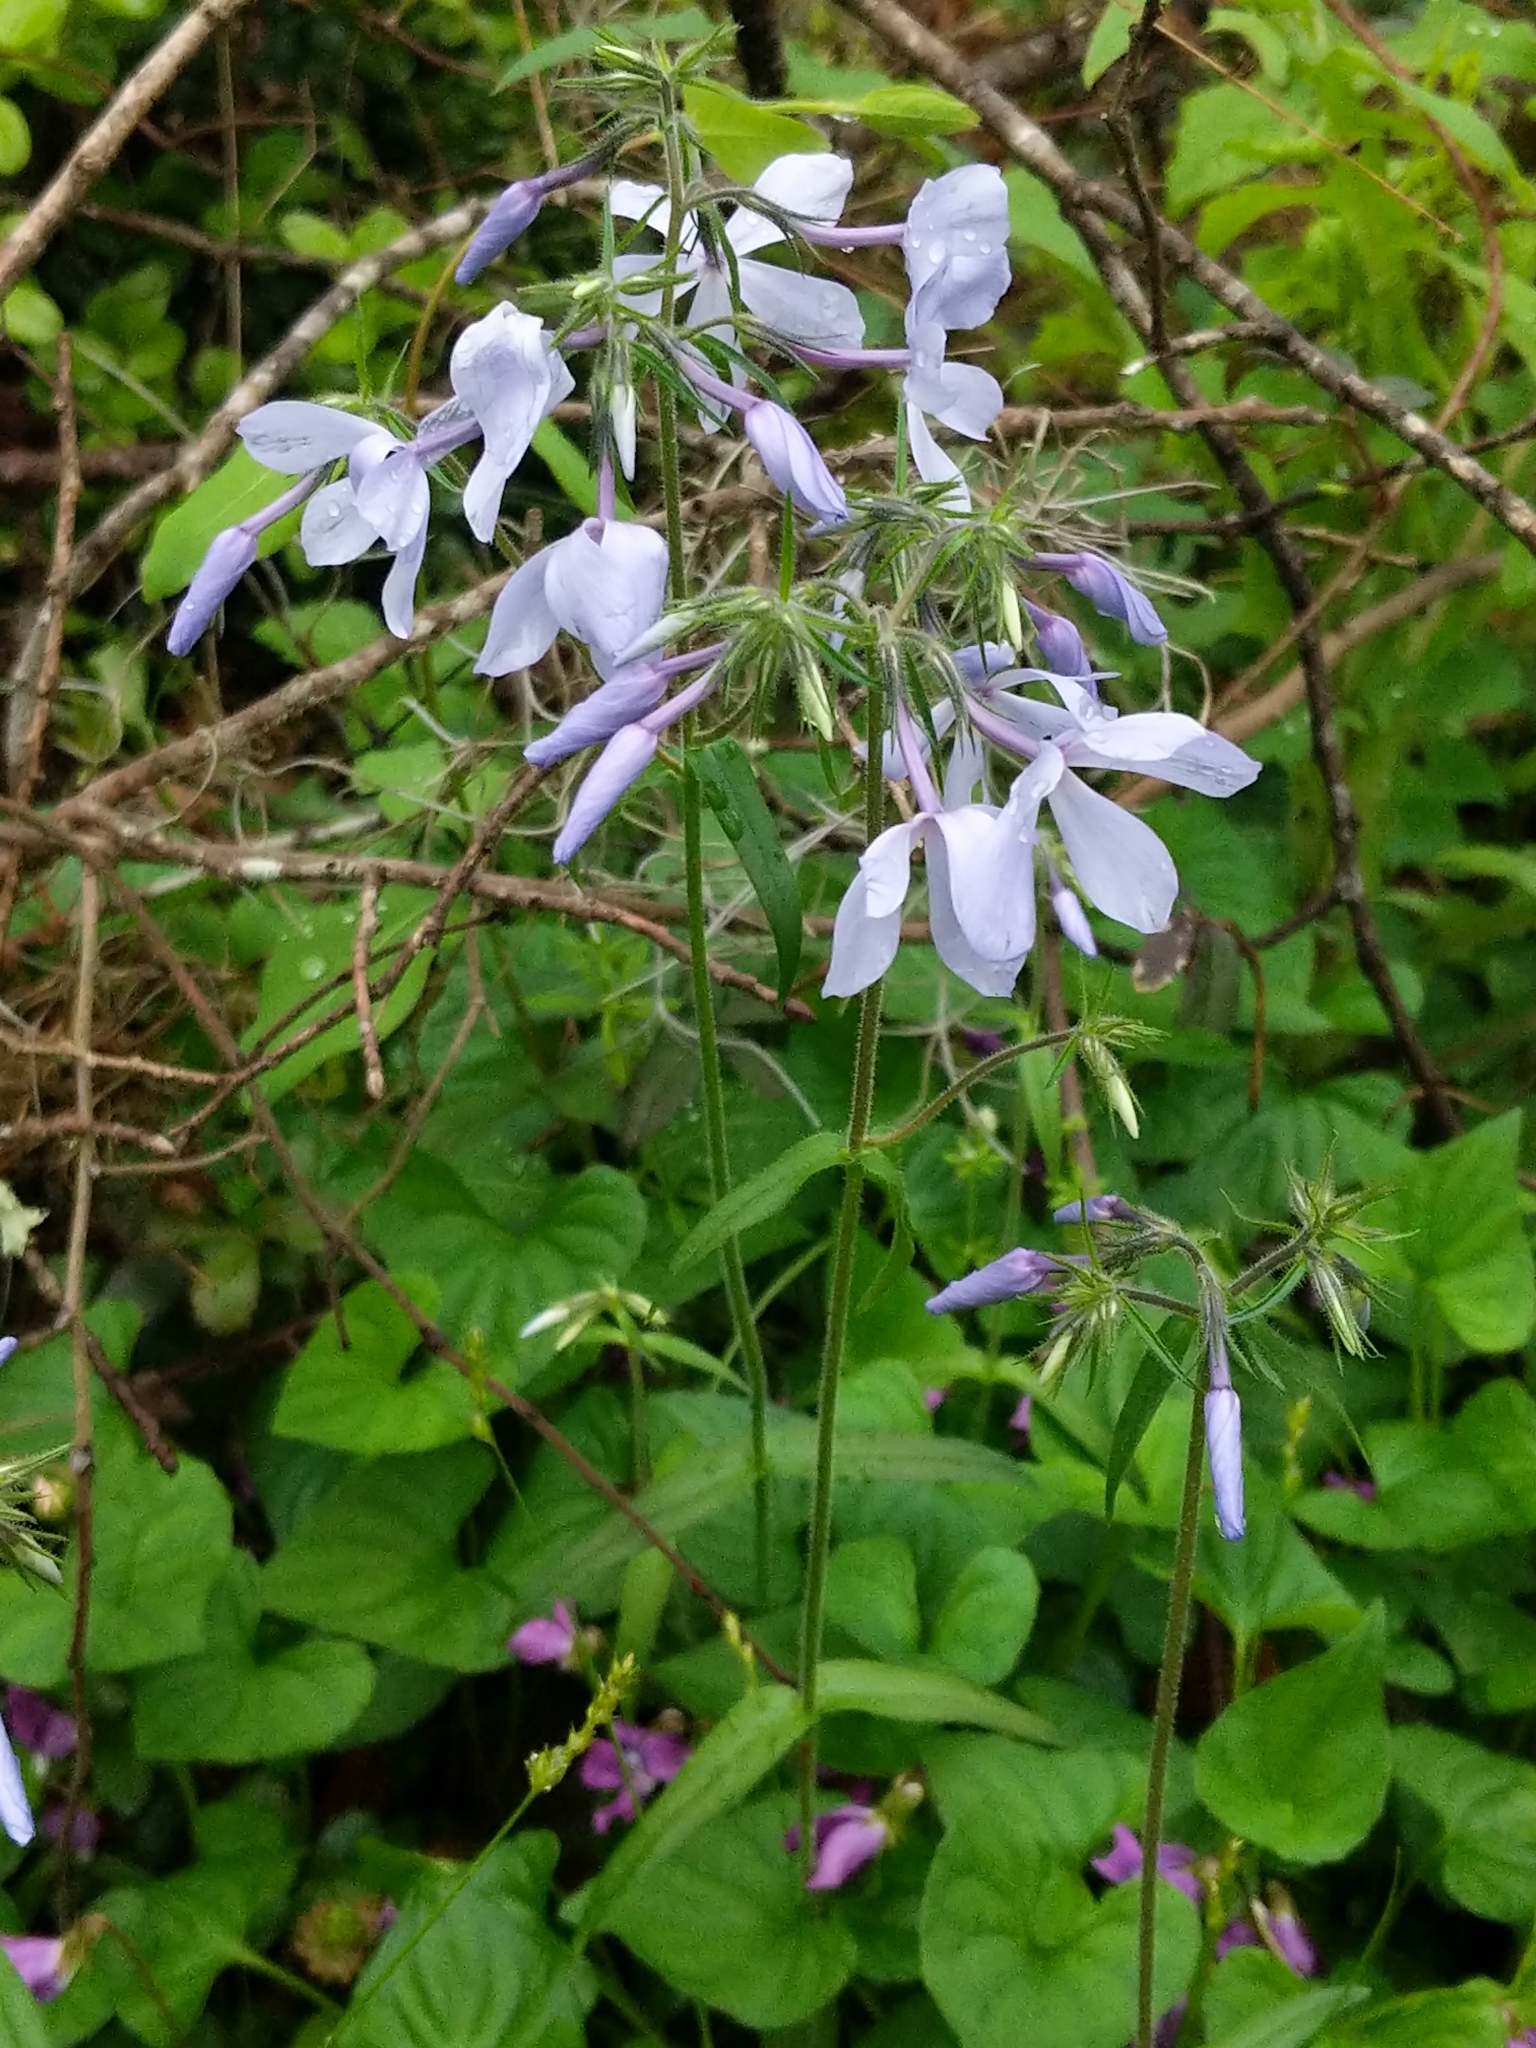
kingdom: Plantae
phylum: Tracheophyta
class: Magnoliopsida
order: Ericales
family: Polemoniaceae
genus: Phlox
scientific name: Phlox divaricata
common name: Blue phlox
